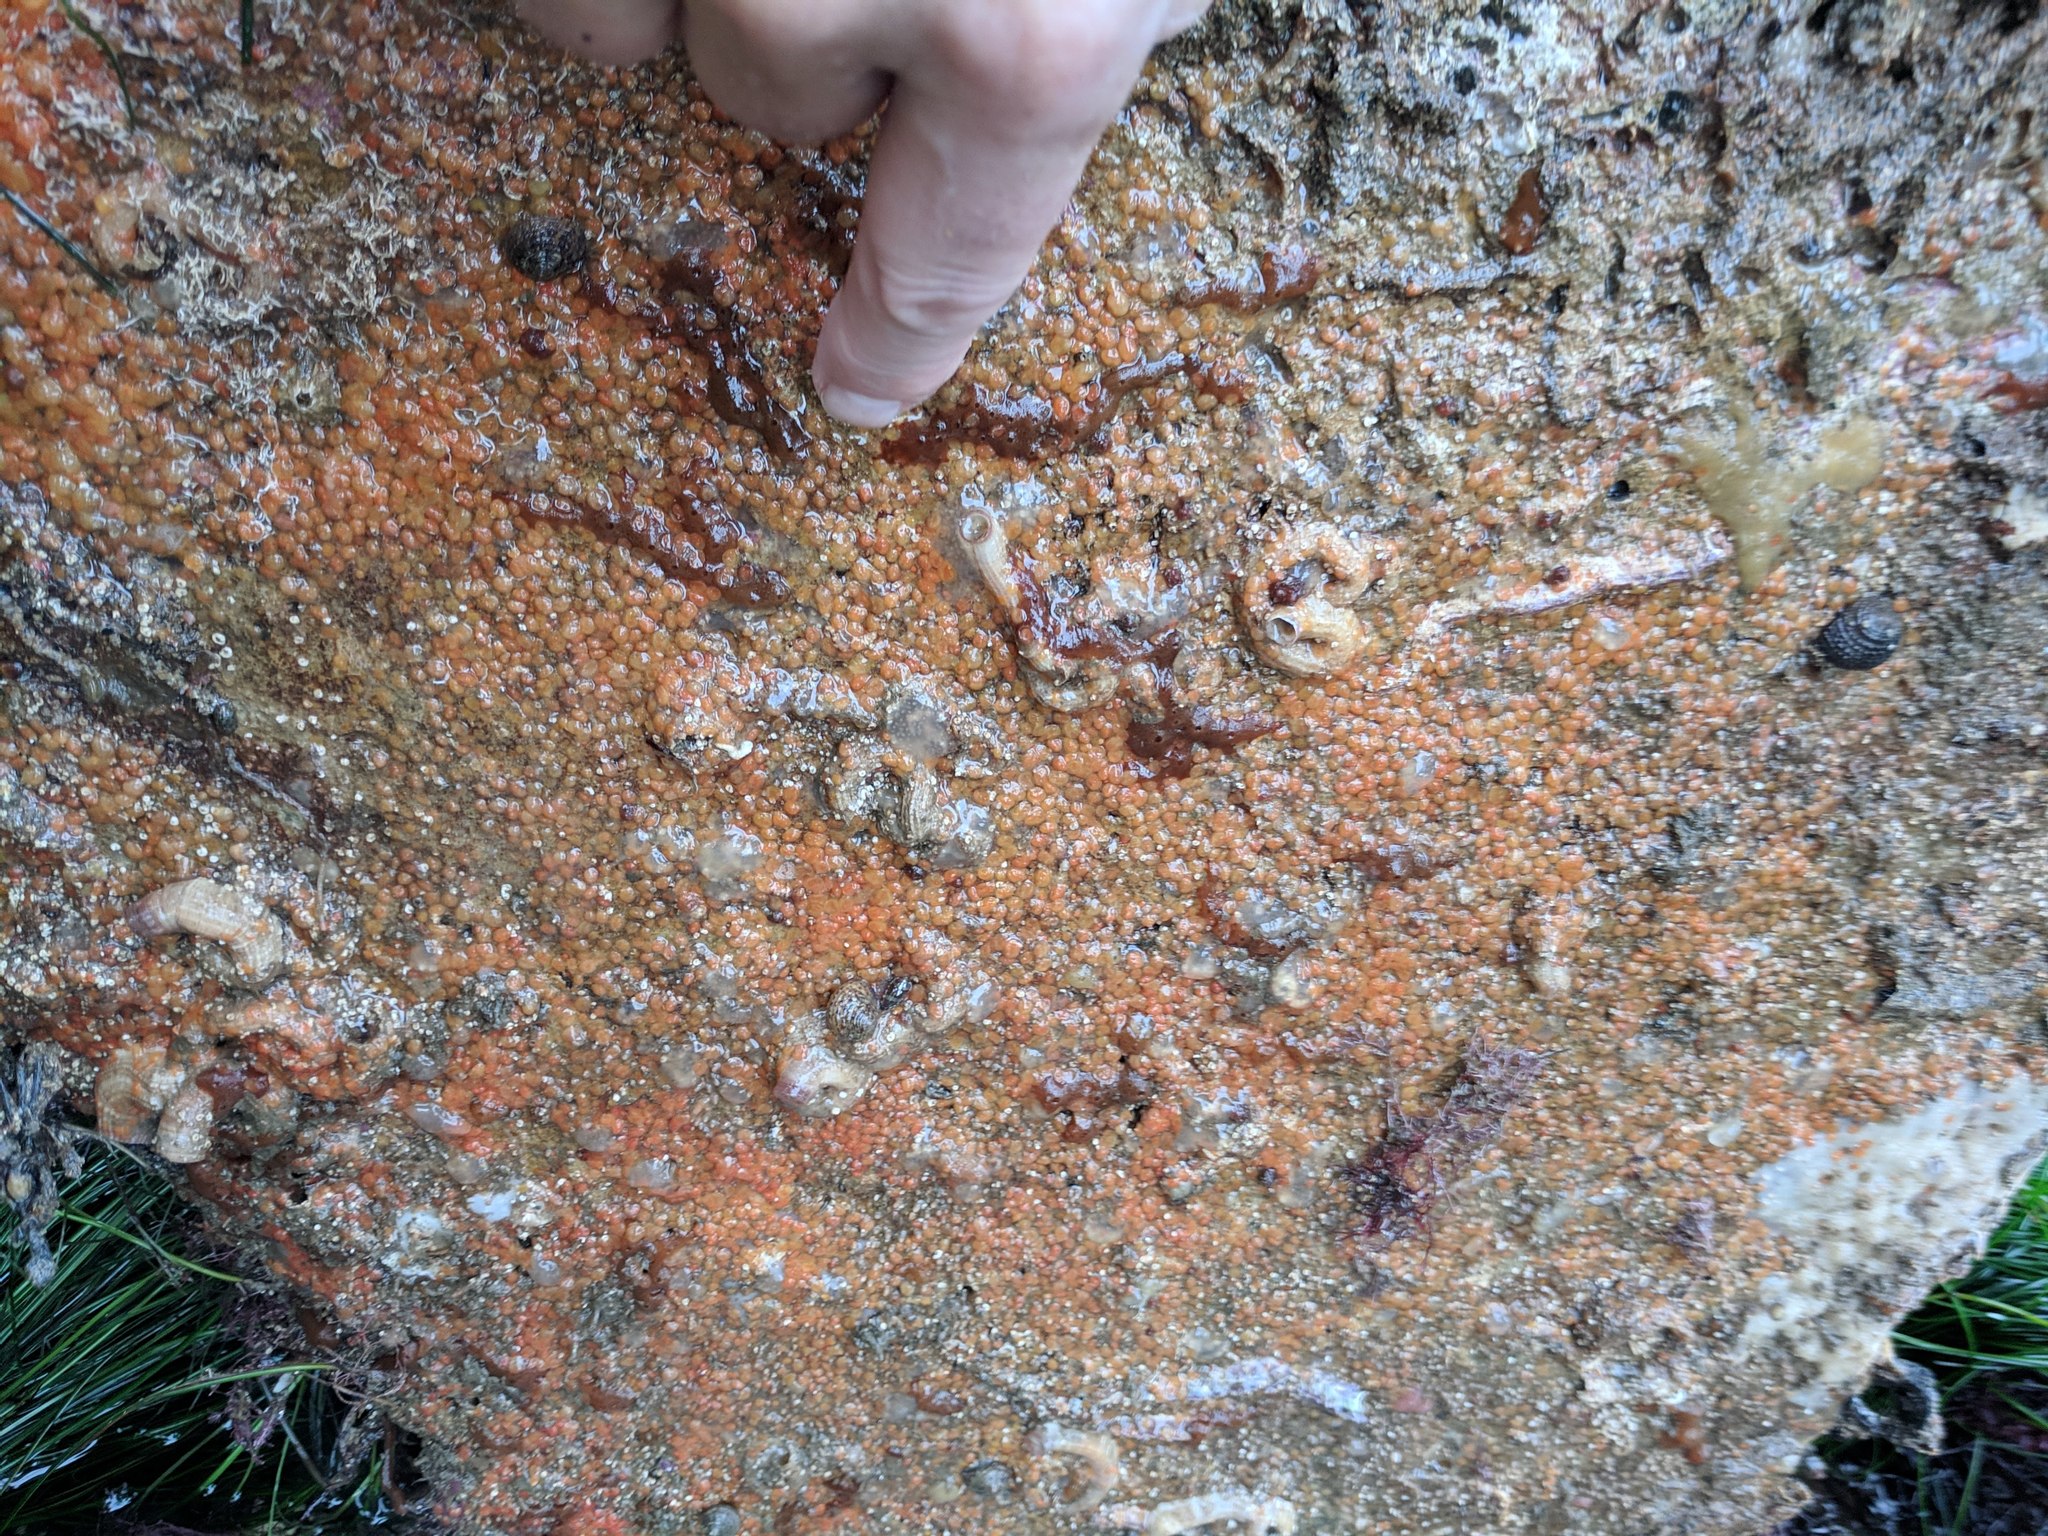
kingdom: Animalia
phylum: Chordata
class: Ascidiacea
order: Stolidobranchia
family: Styelidae
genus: Metandrocarpa
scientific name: Metandrocarpa taylori
